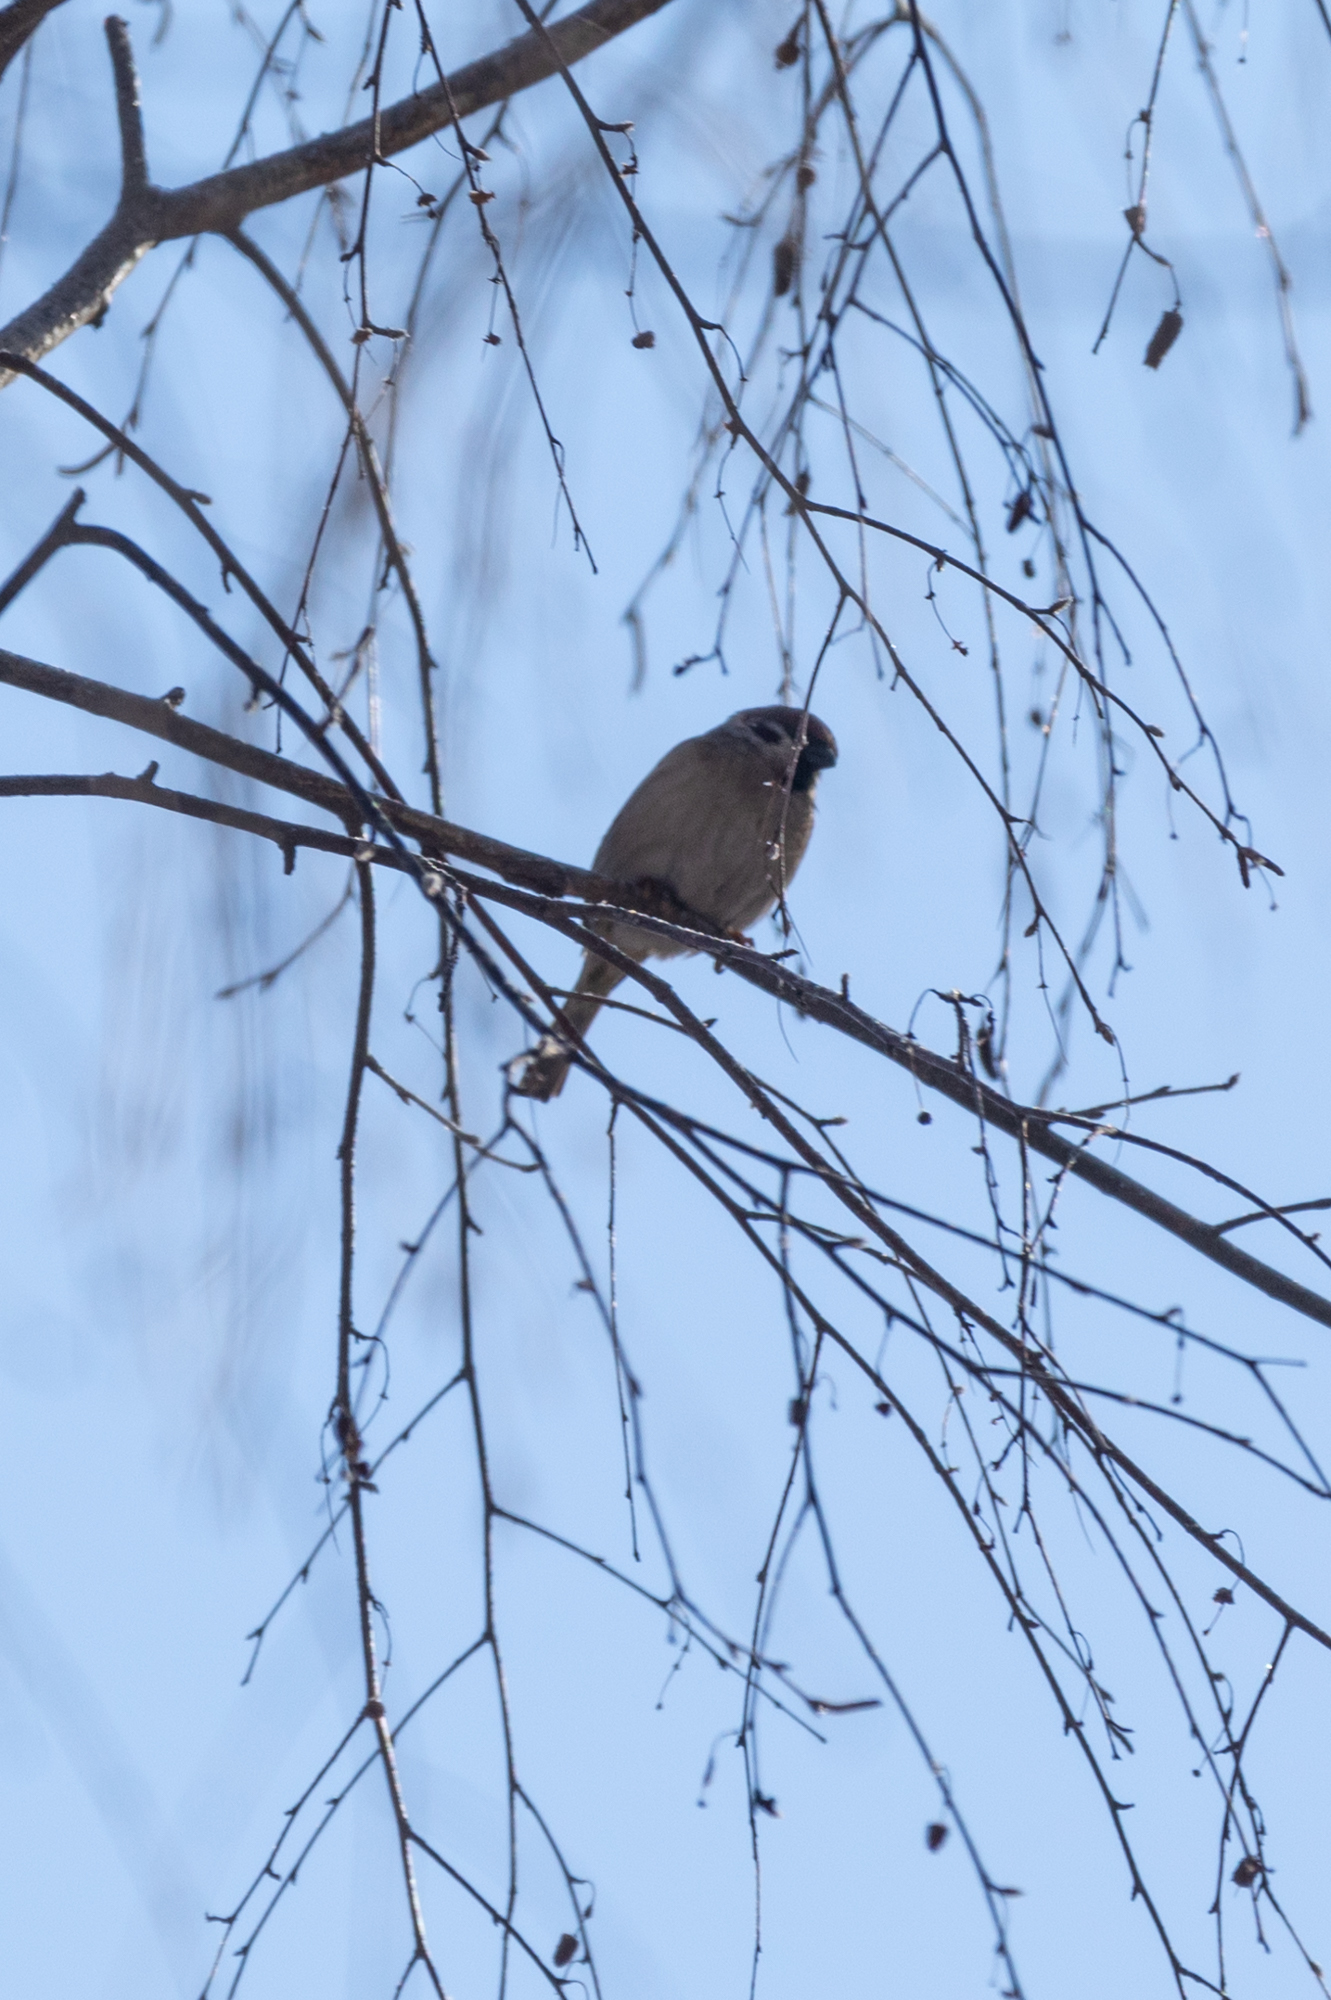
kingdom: Animalia
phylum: Chordata
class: Aves
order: Passeriformes
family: Passeridae
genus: Passer
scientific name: Passer montanus
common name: Eurasian tree sparrow
